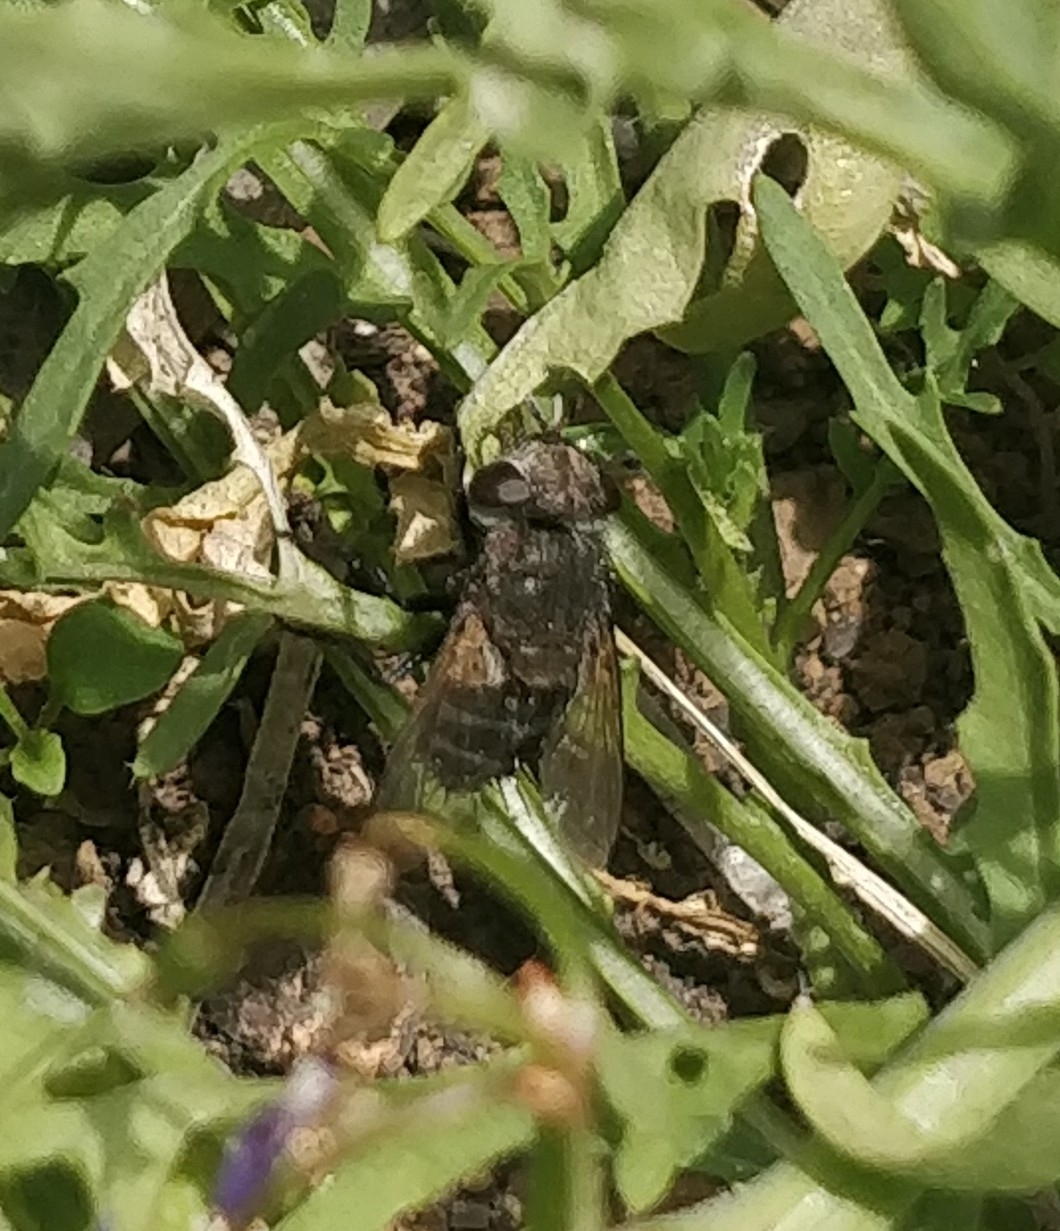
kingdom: Animalia
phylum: Arthropoda
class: Insecta
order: Diptera
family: Tachinidae
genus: Pseudogonia
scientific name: Pseudogonia fasciata
